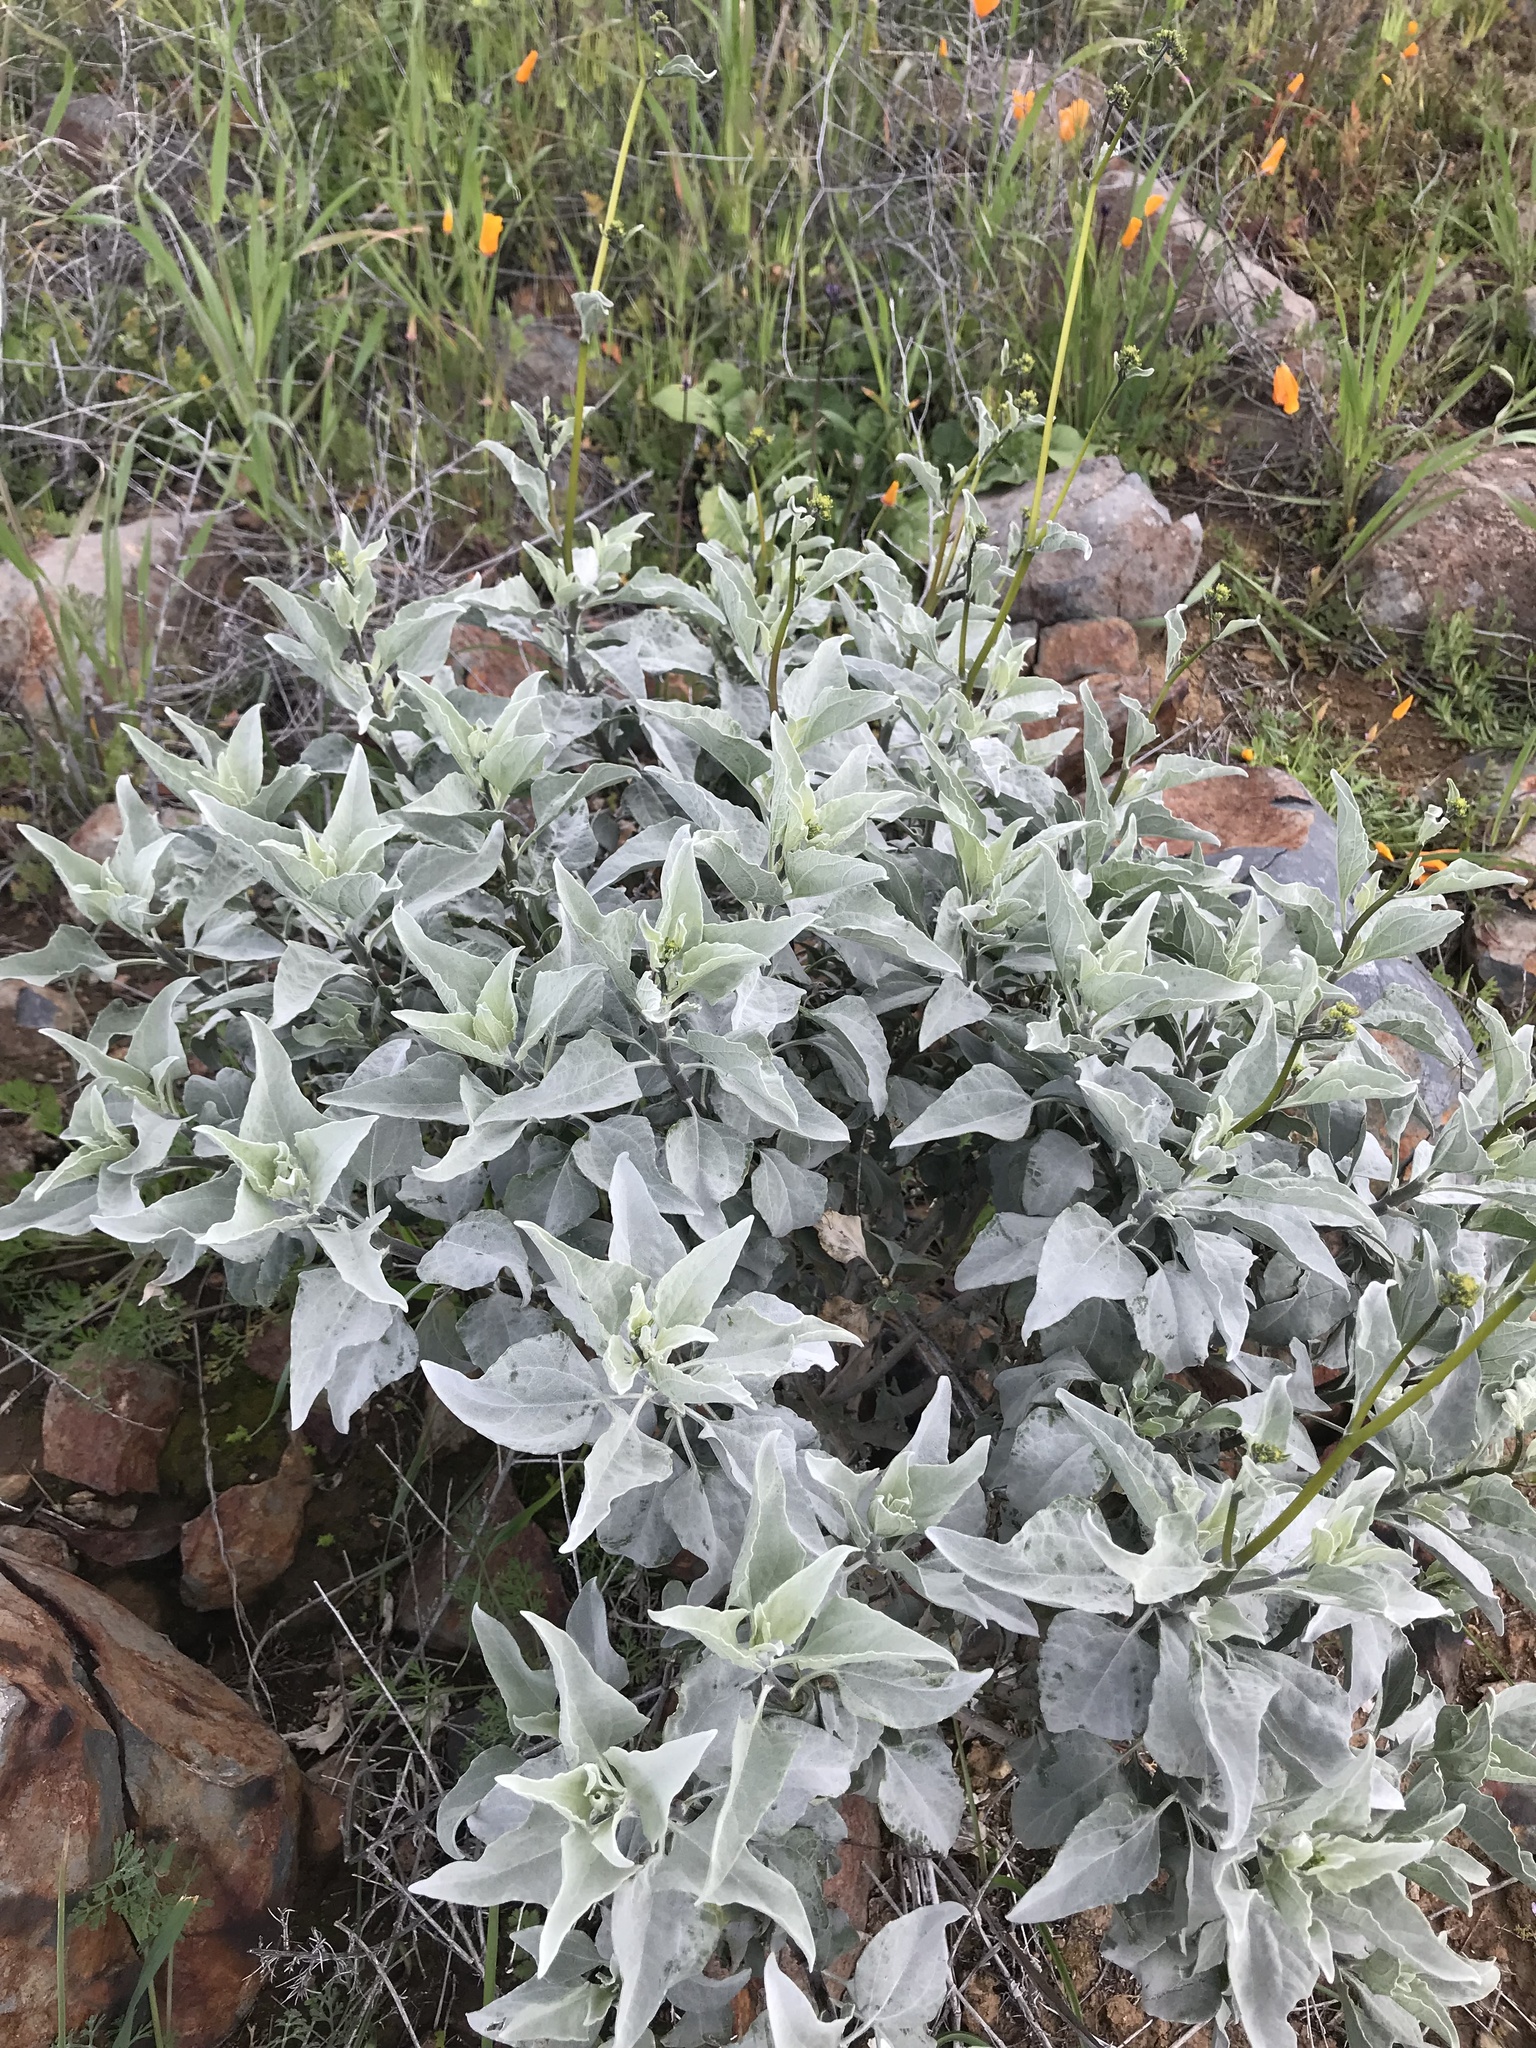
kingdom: Plantae
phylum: Tracheophyta
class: Magnoliopsida
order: Asterales
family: Asteraceae
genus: Encelia
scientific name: Encelia farinosa
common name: Brittlebush
